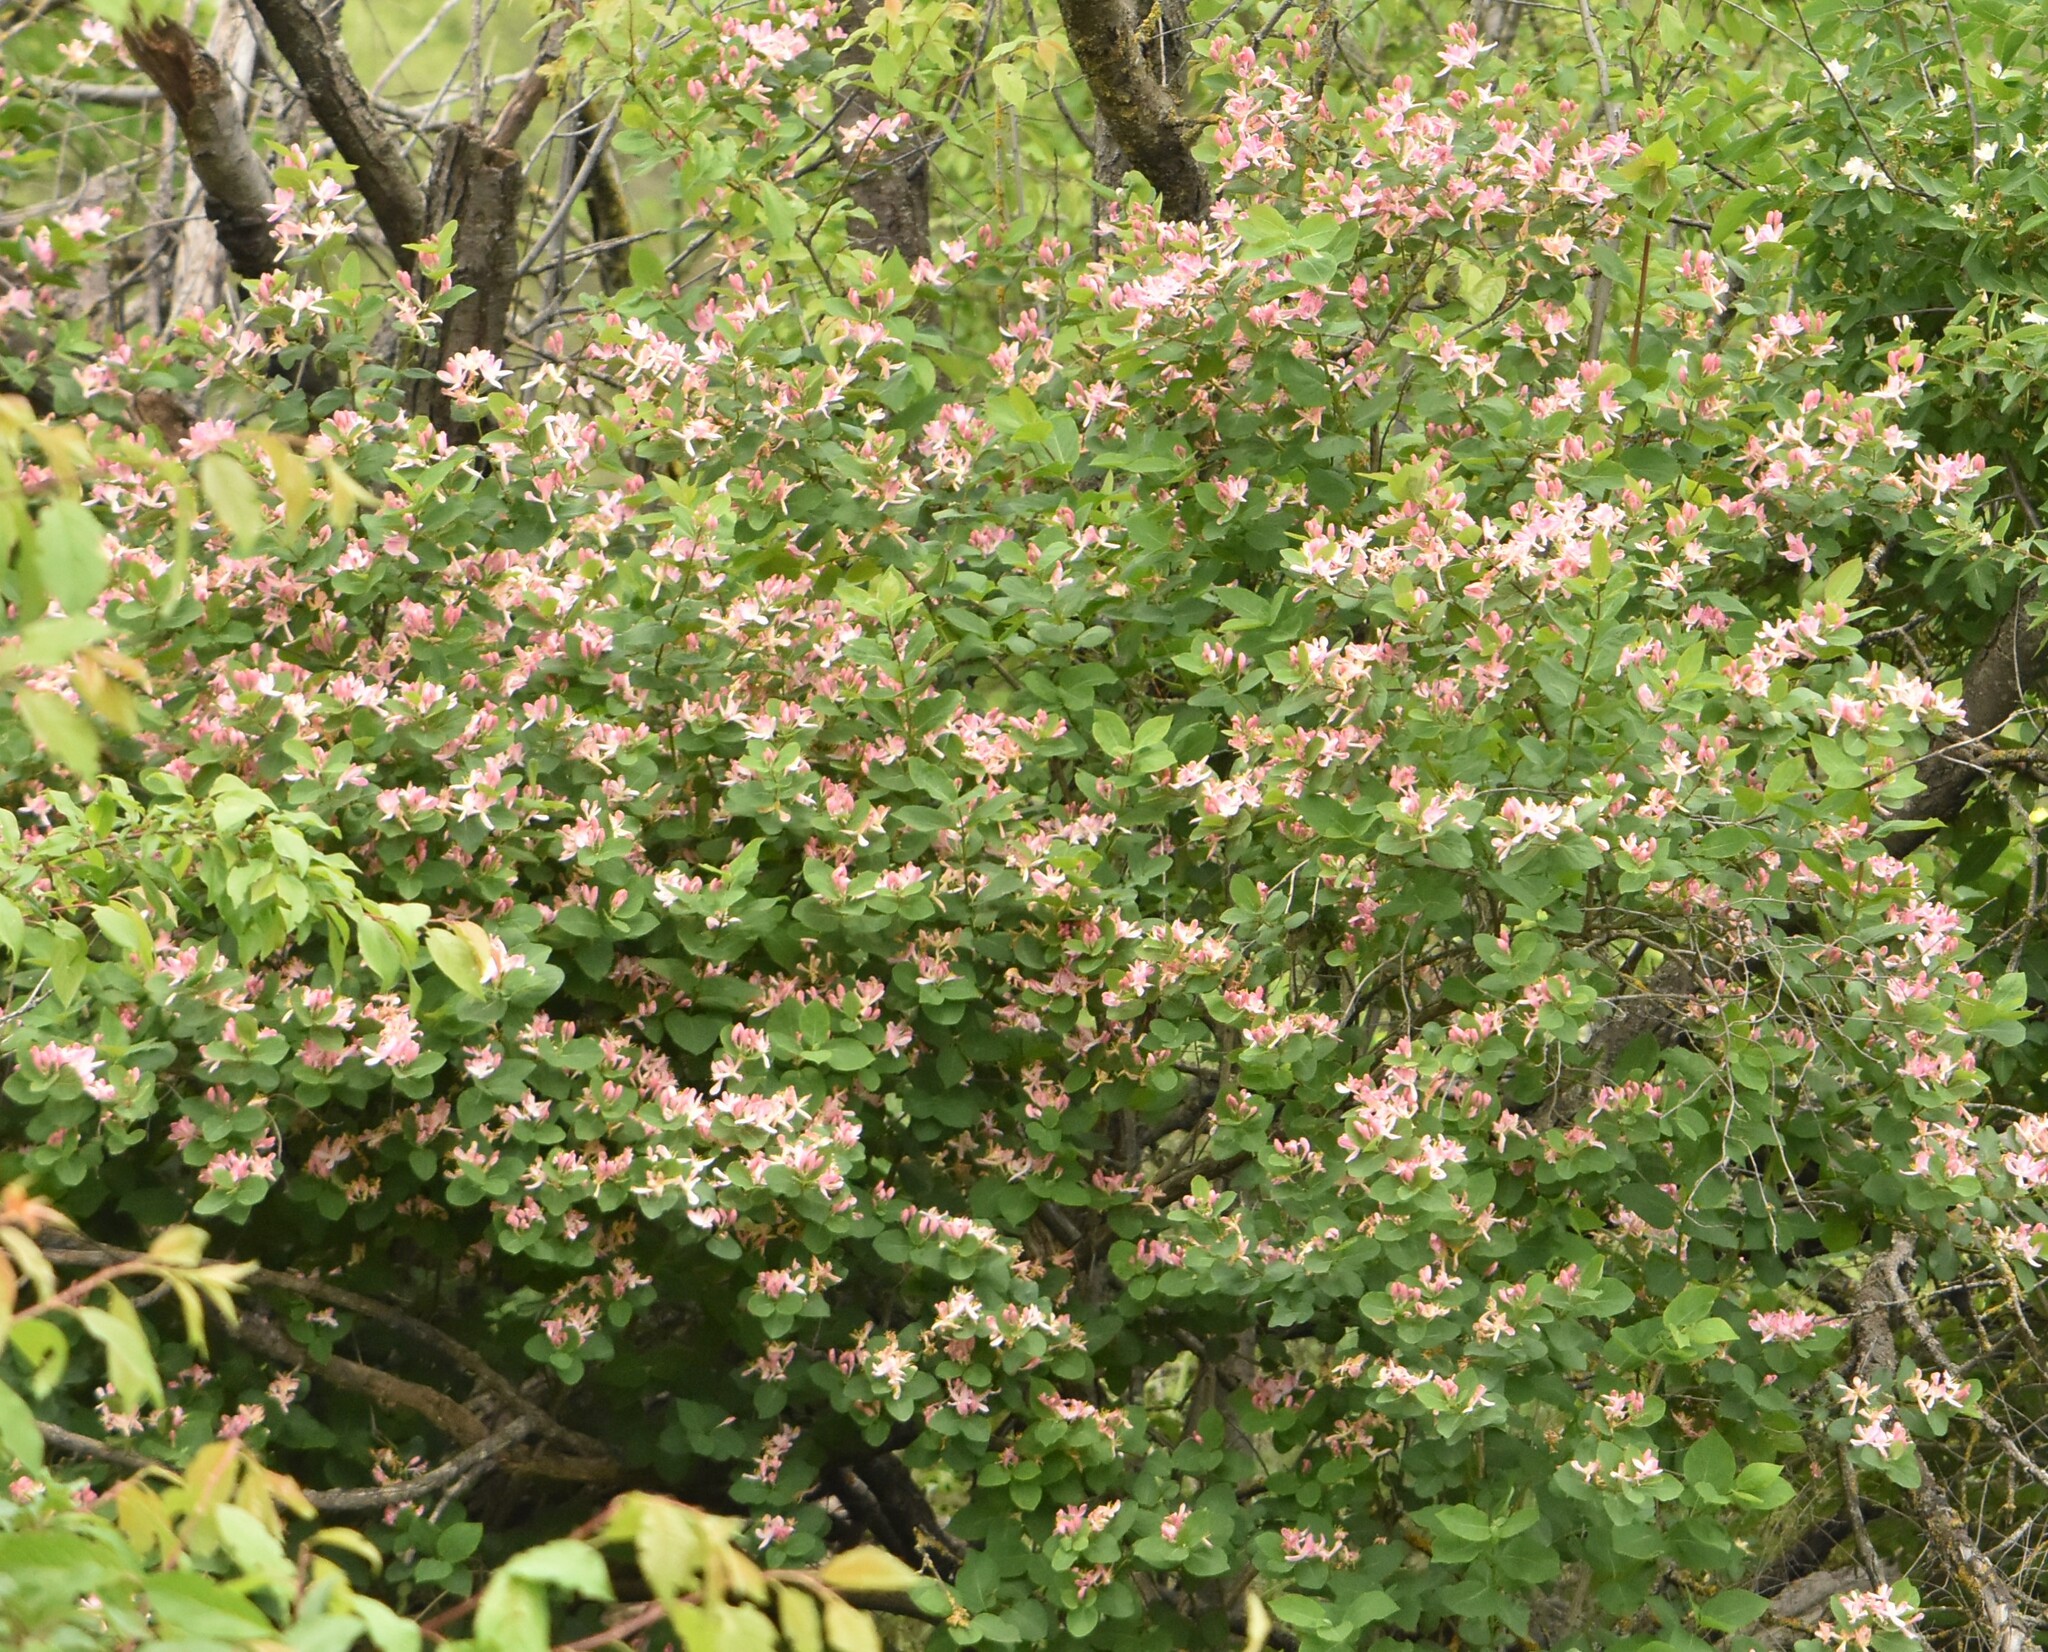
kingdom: Plantae
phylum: Tracheophyta
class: Magnoliopsida
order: Dipsacales
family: Caprifoliaceae
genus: Lonicera
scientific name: Lonicera tatarica
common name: Tatarian honeysuckle
